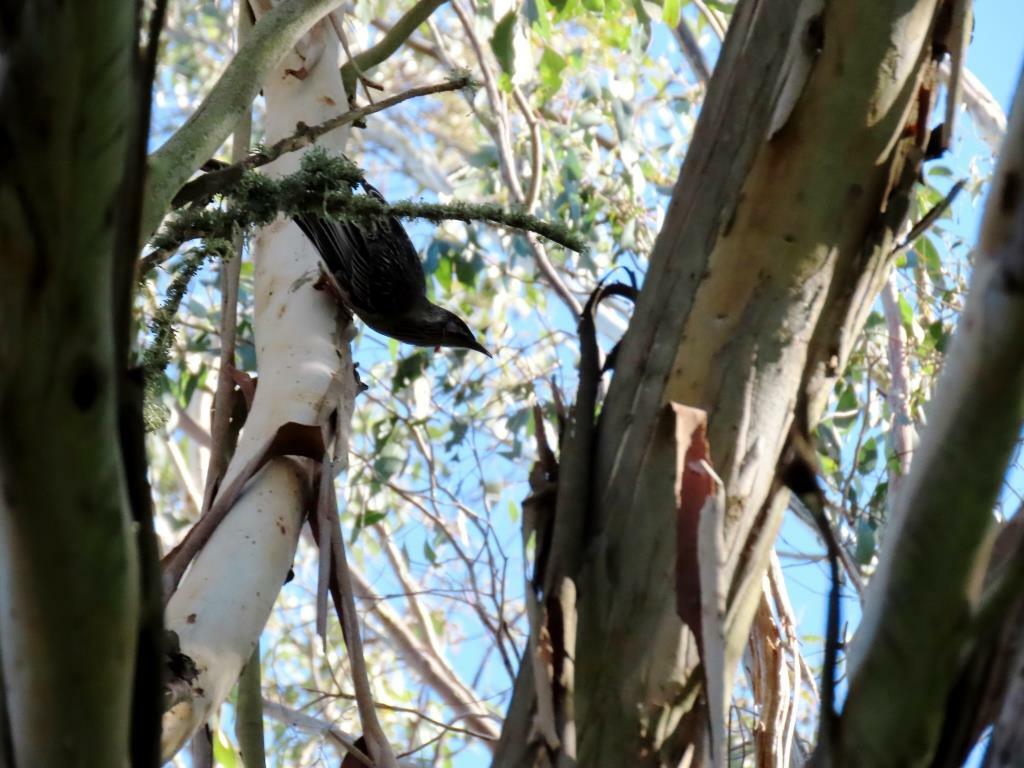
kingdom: Animalia
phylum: Chordata
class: Aves
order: Passeriformes
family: Meliphagidae
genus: Anthochaera
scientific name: Anthochaera carunculata
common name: Red wattlebird
